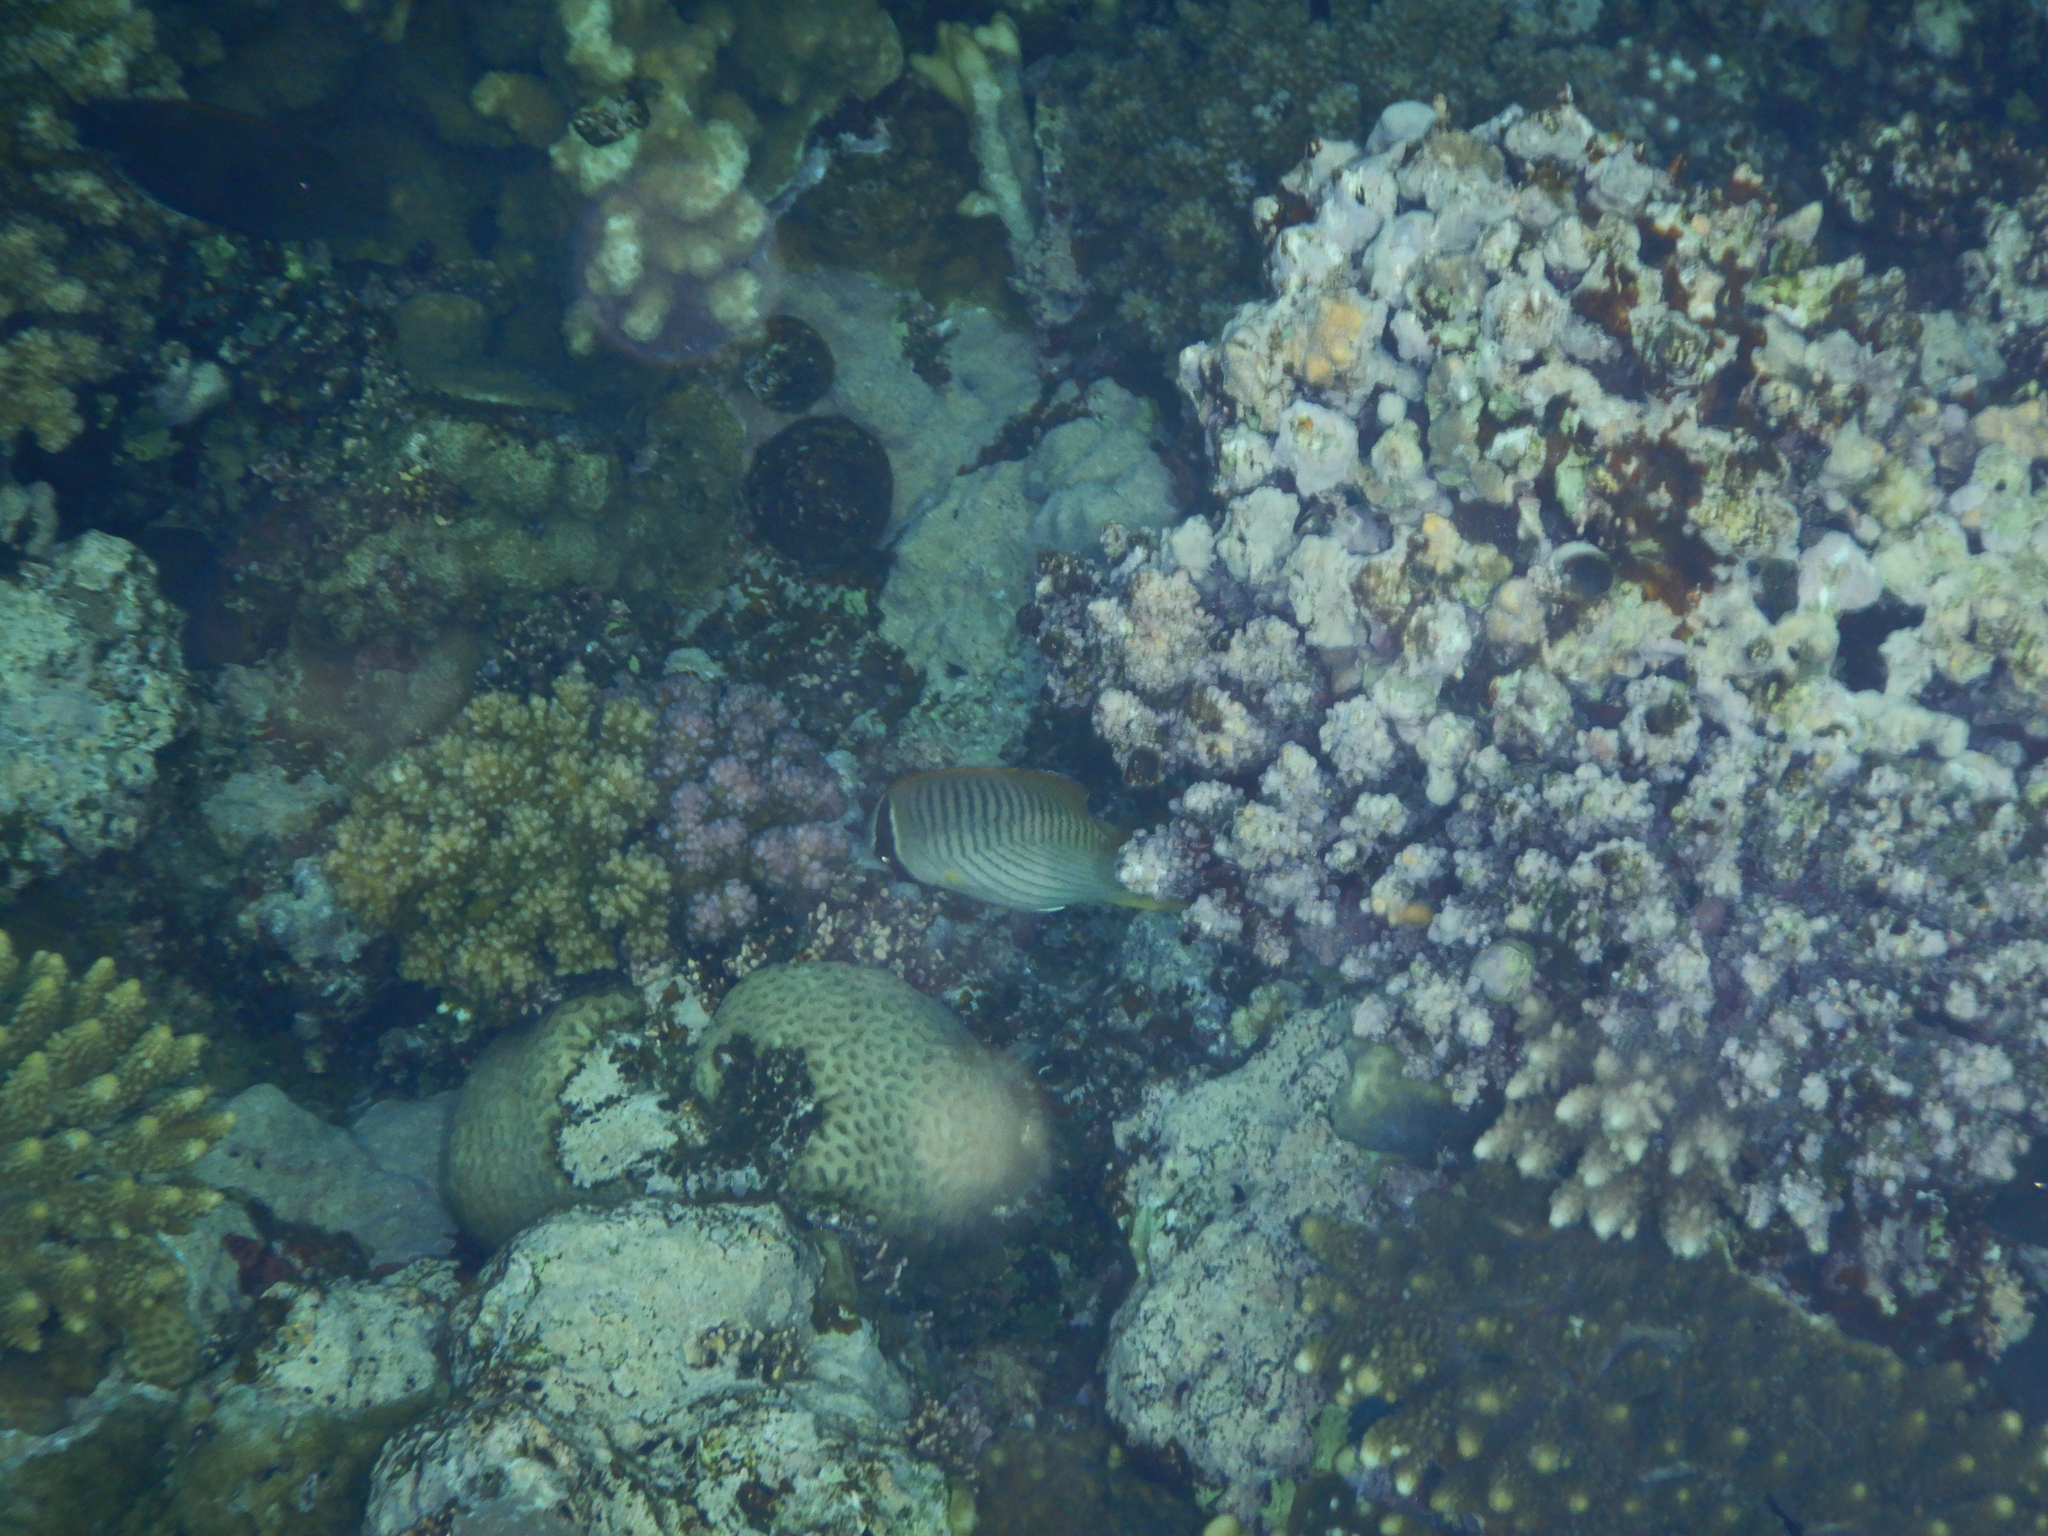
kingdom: Animalia
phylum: Chordata
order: Perciformes
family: Chaetodontidae
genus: Chaetodon
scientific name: Chaetodon trifascialis
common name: Chevroned butterflyfish
